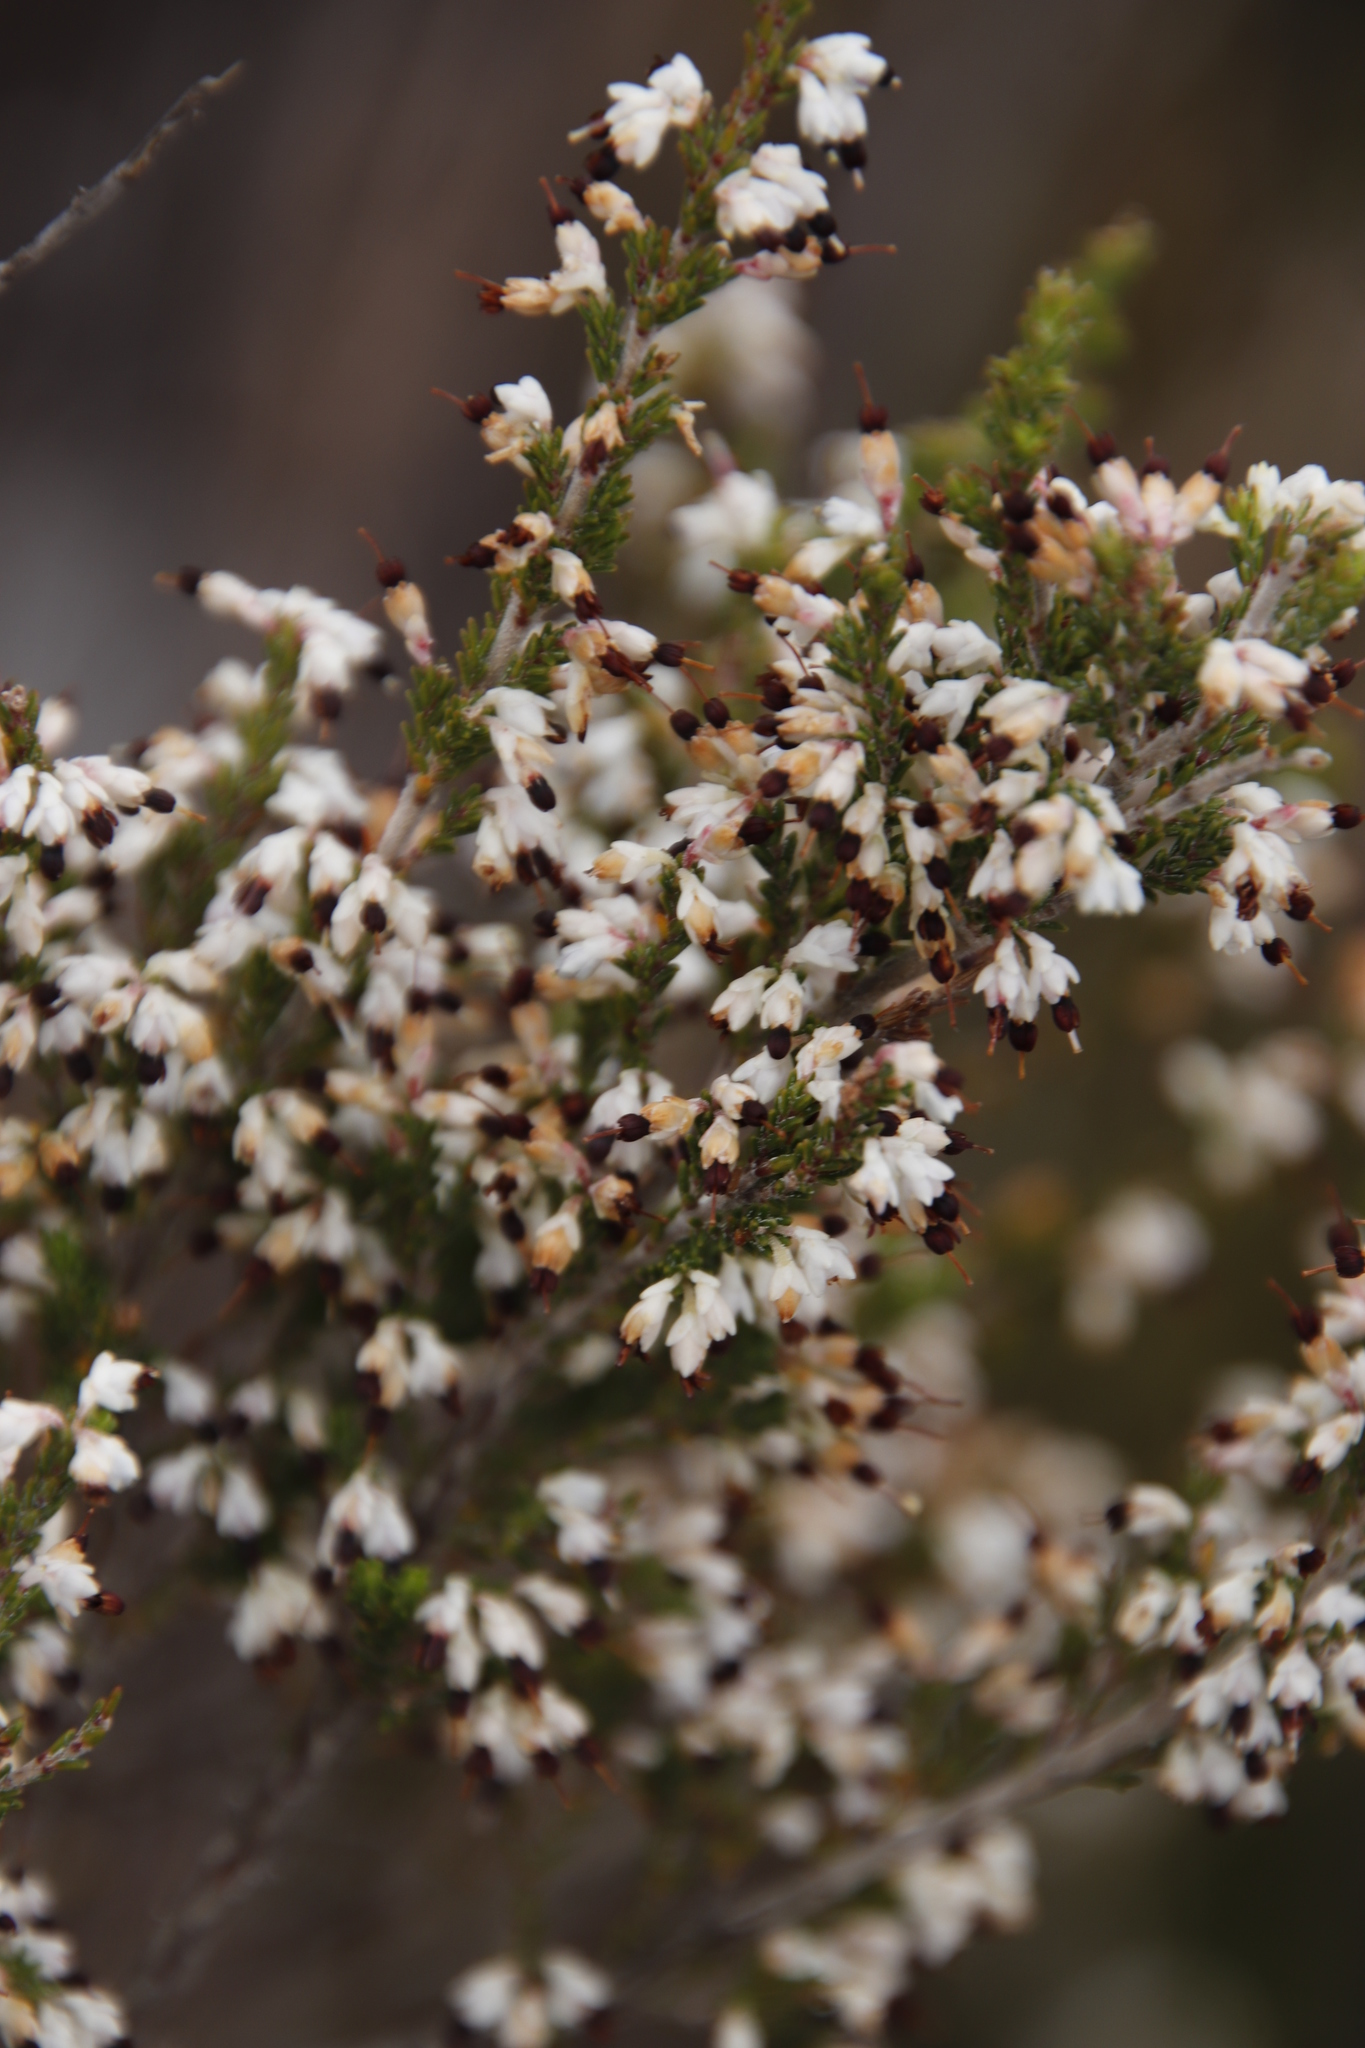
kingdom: Plantae
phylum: Tracheophyta
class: Magnoliopsida
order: Ericales
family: Ericaceae
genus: Erica
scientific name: Erica imbricata
